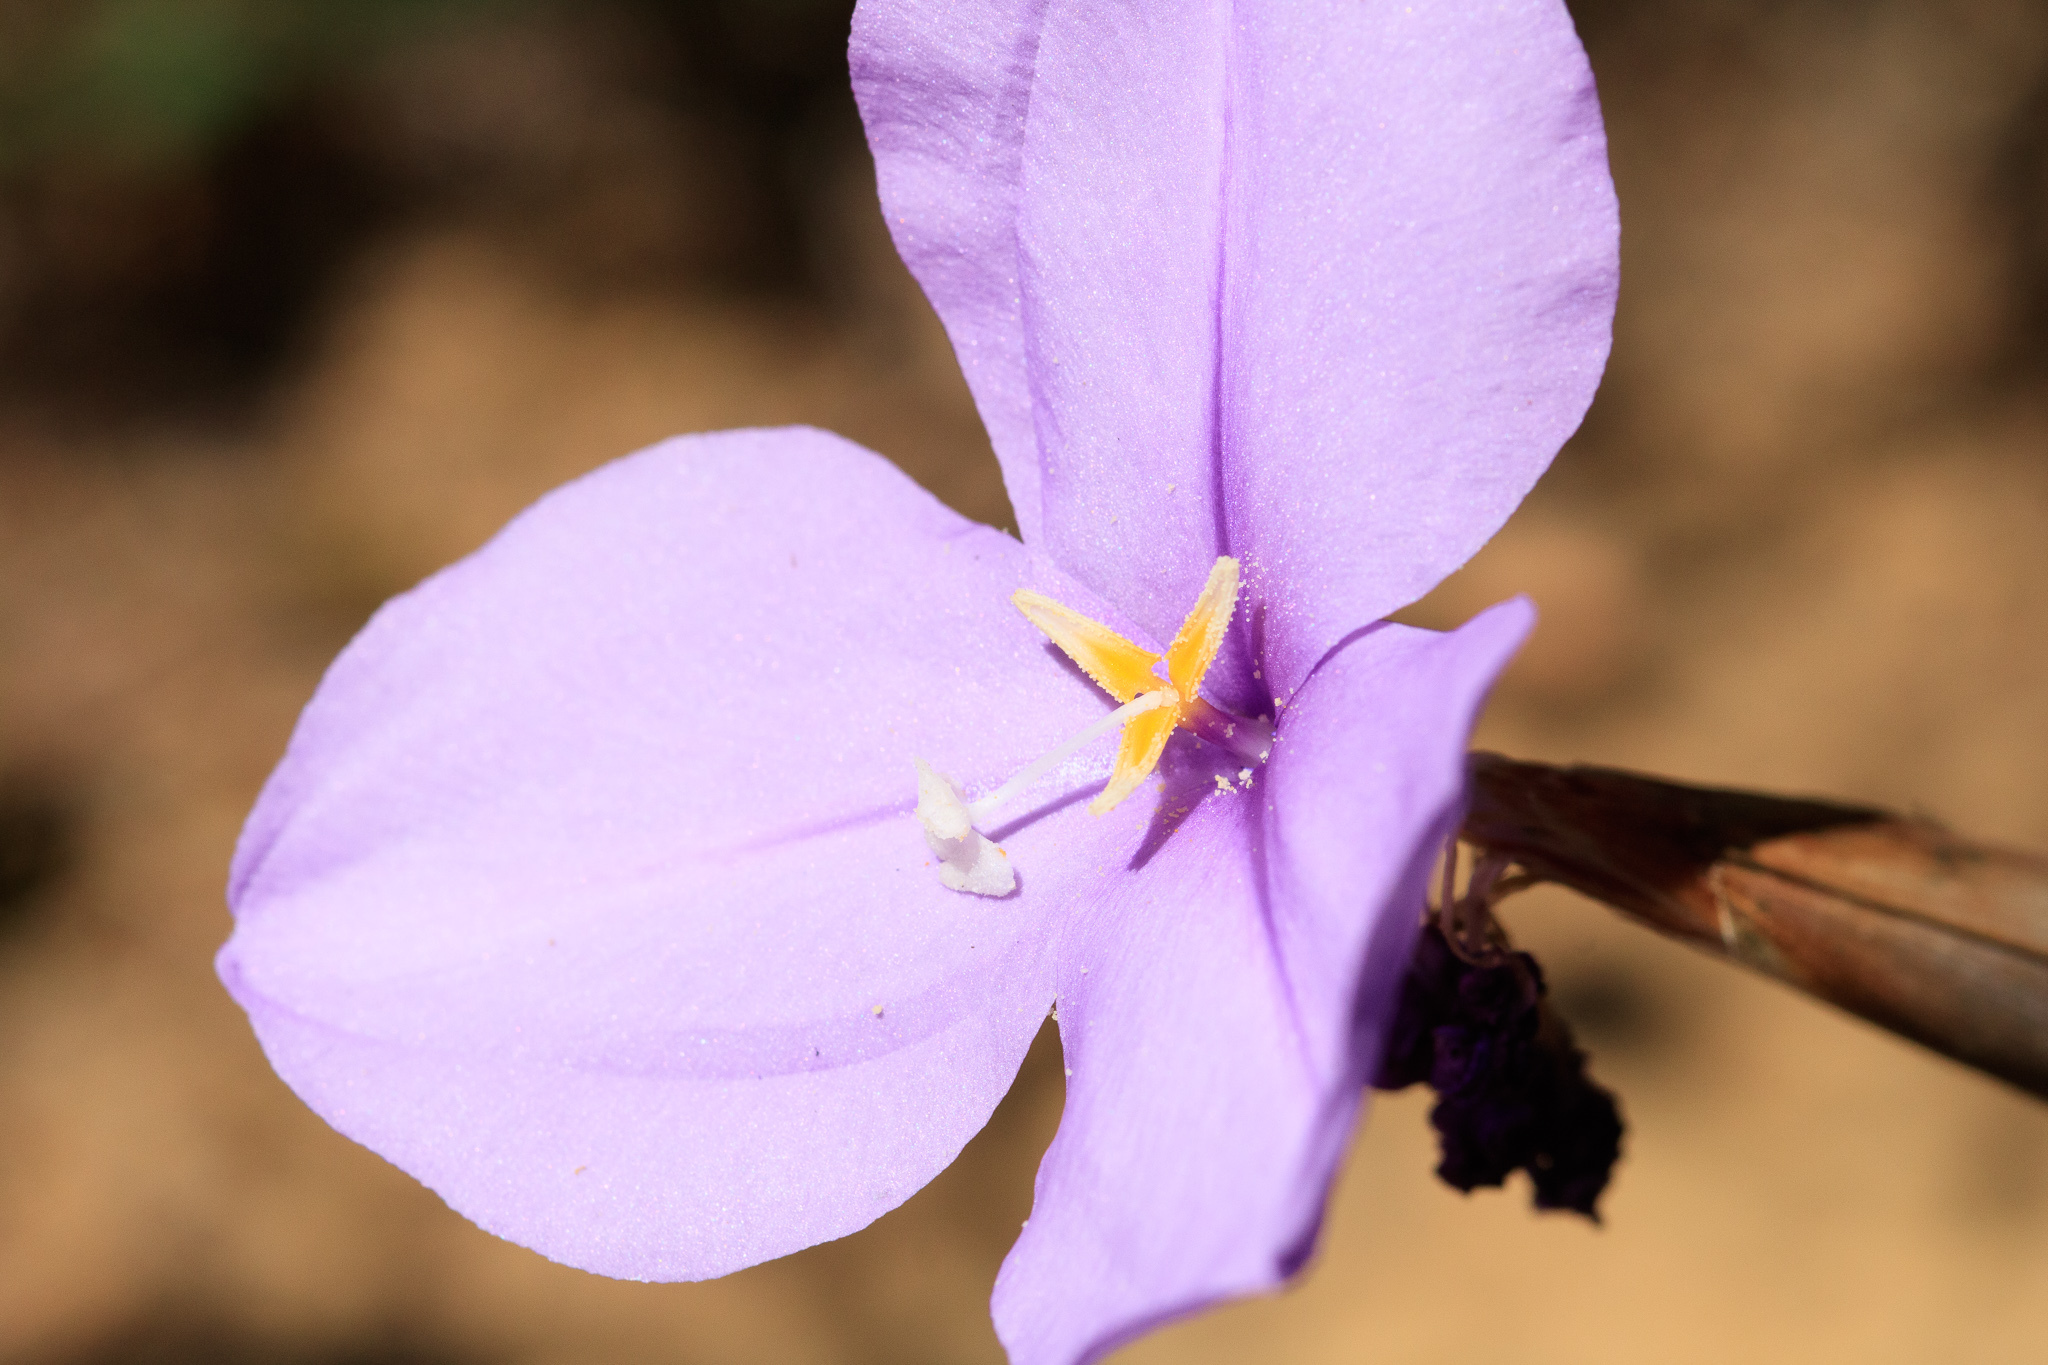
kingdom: Plantae
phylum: Tracheophyta
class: Liliopsida
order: Asparagales
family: Iridaceae
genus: Patersonia
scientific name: Patersonia occidentalis
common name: Long purple-flag
